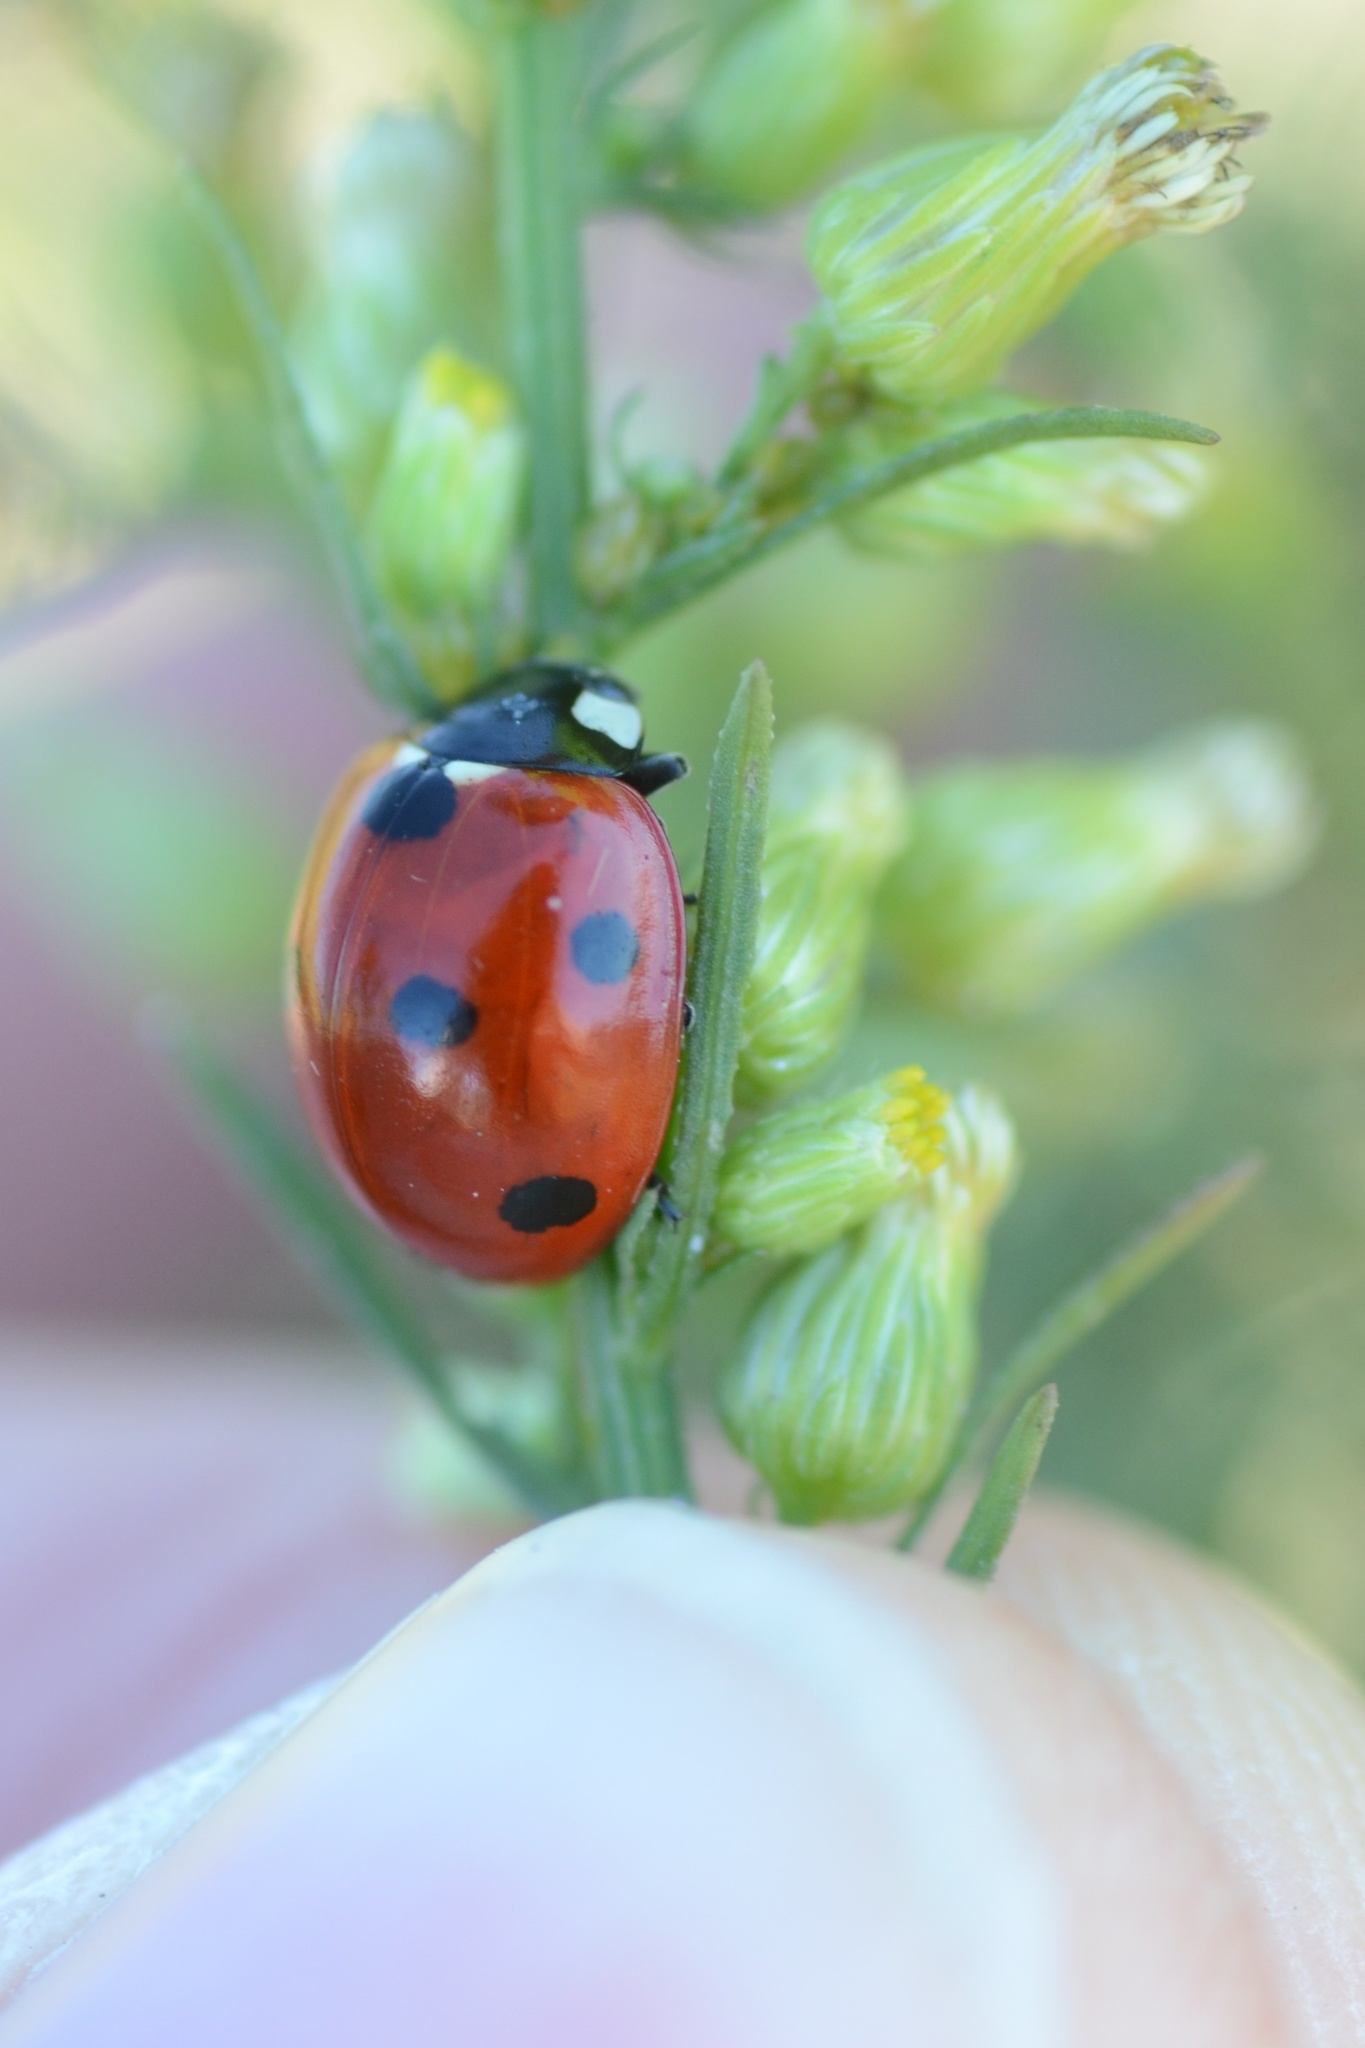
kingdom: Animalia
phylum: Arthropoda
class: Insecta
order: Coleoptera
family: Coccinellidae
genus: Coccinella
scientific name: Coccinella septempunctata
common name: Sevenspotted lady beetle
